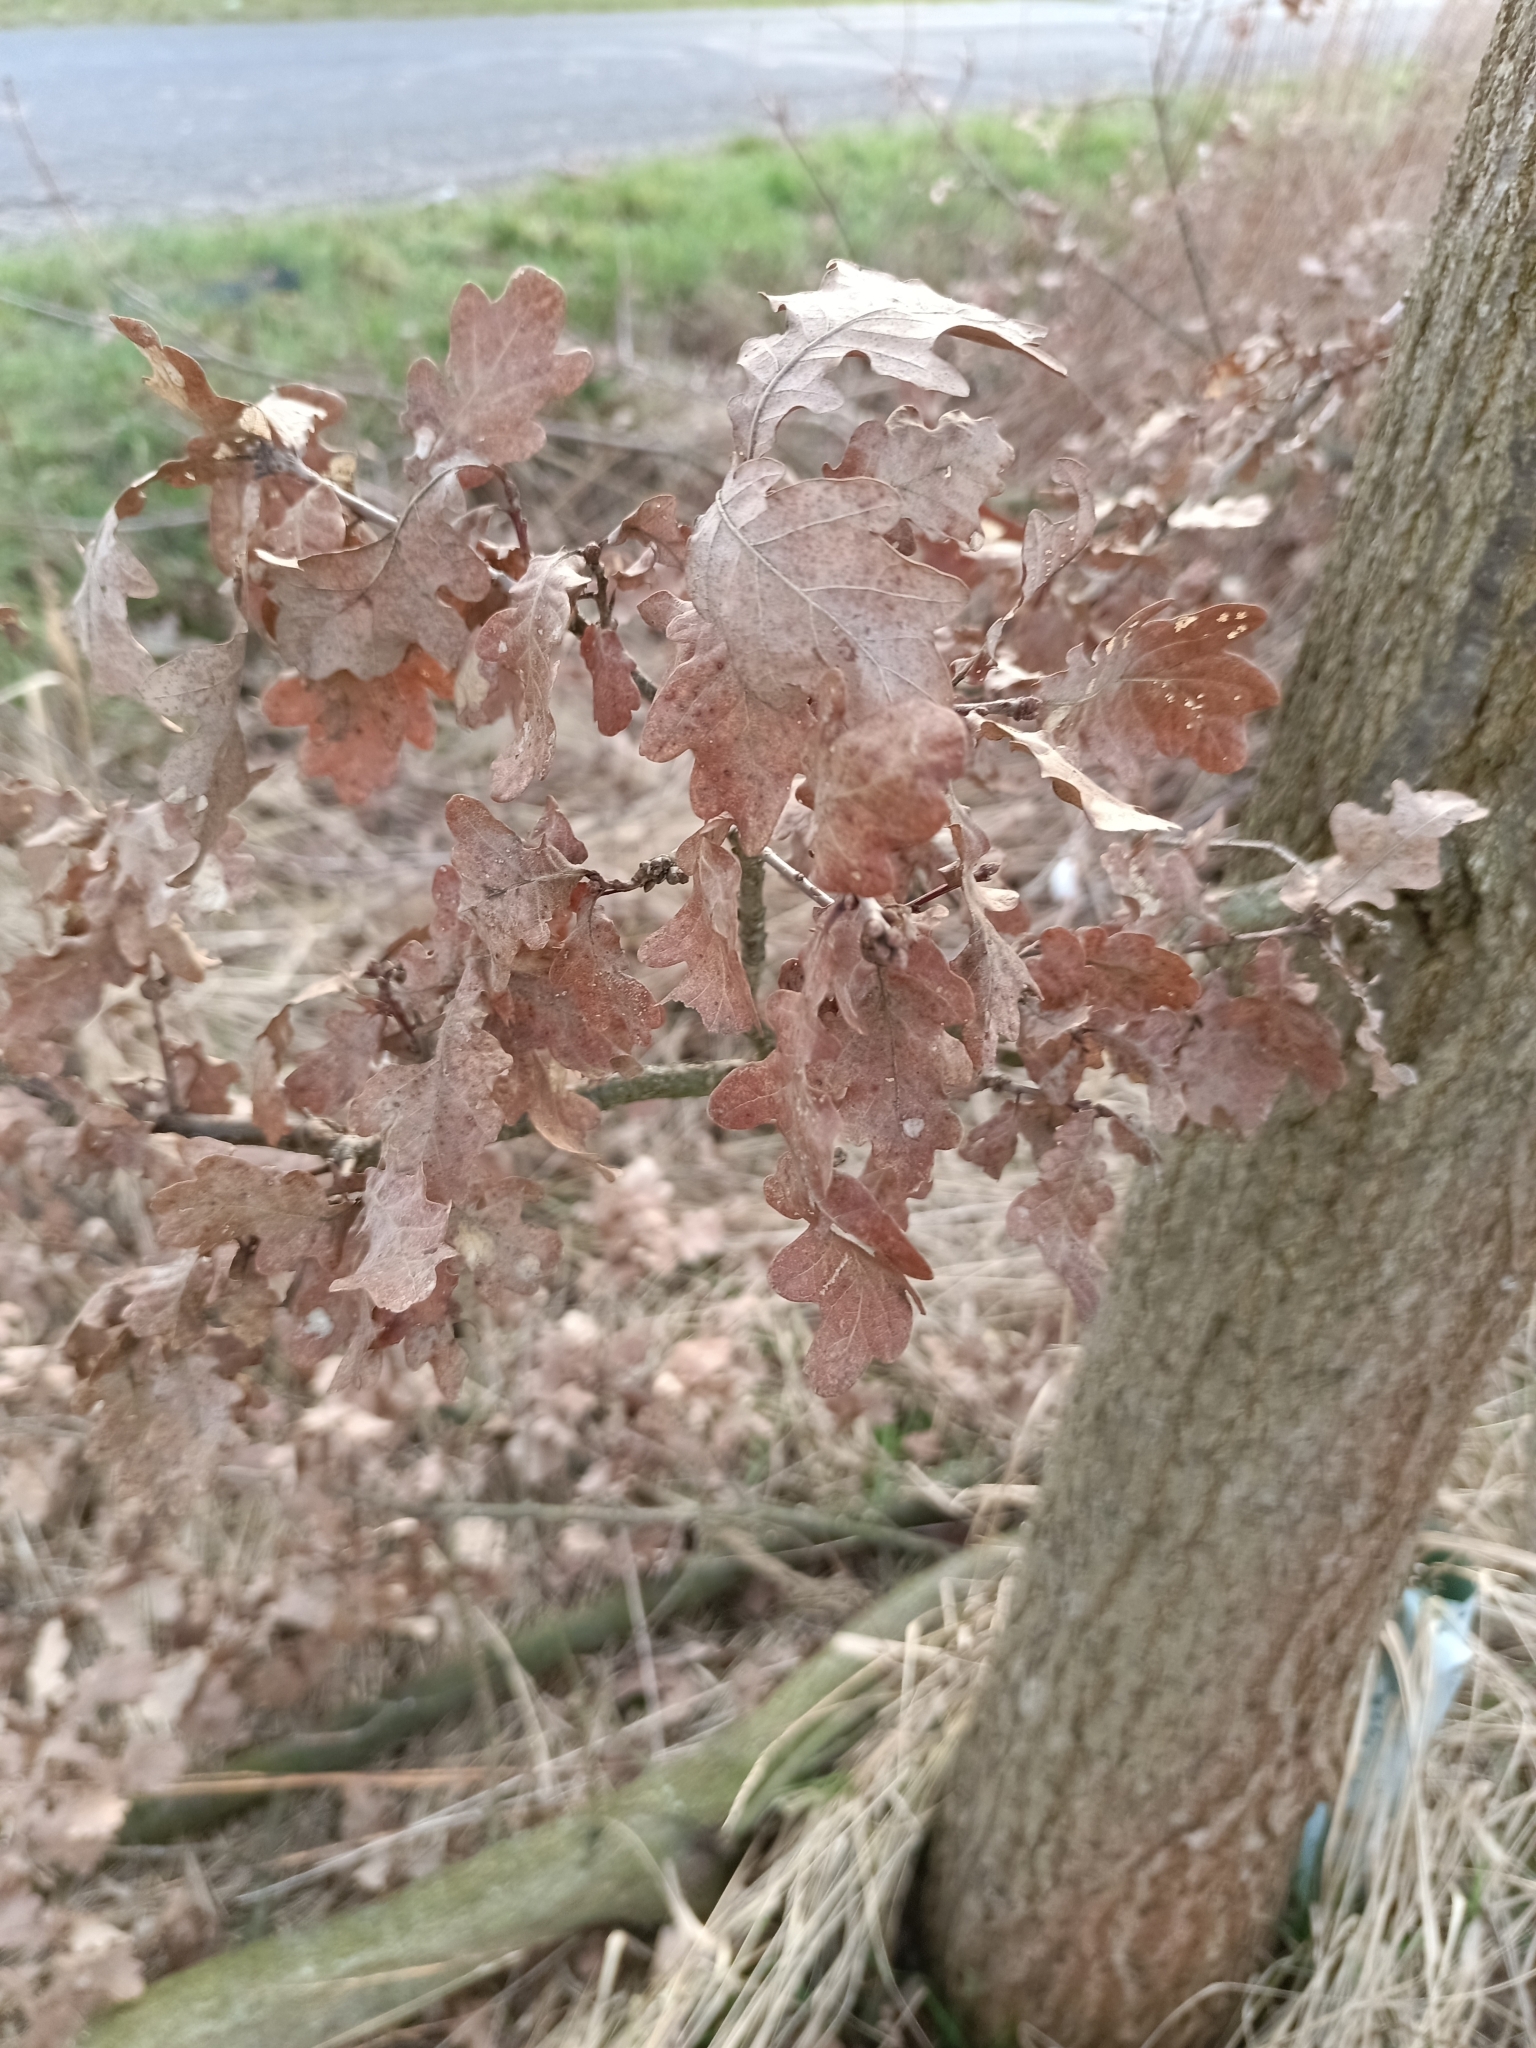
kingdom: Plantae
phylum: Tracheophyta
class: Magnoliopsida
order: Fagales
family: Fagaceae
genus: Quercus
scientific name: Quercus robur
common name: Pedunculate oak
